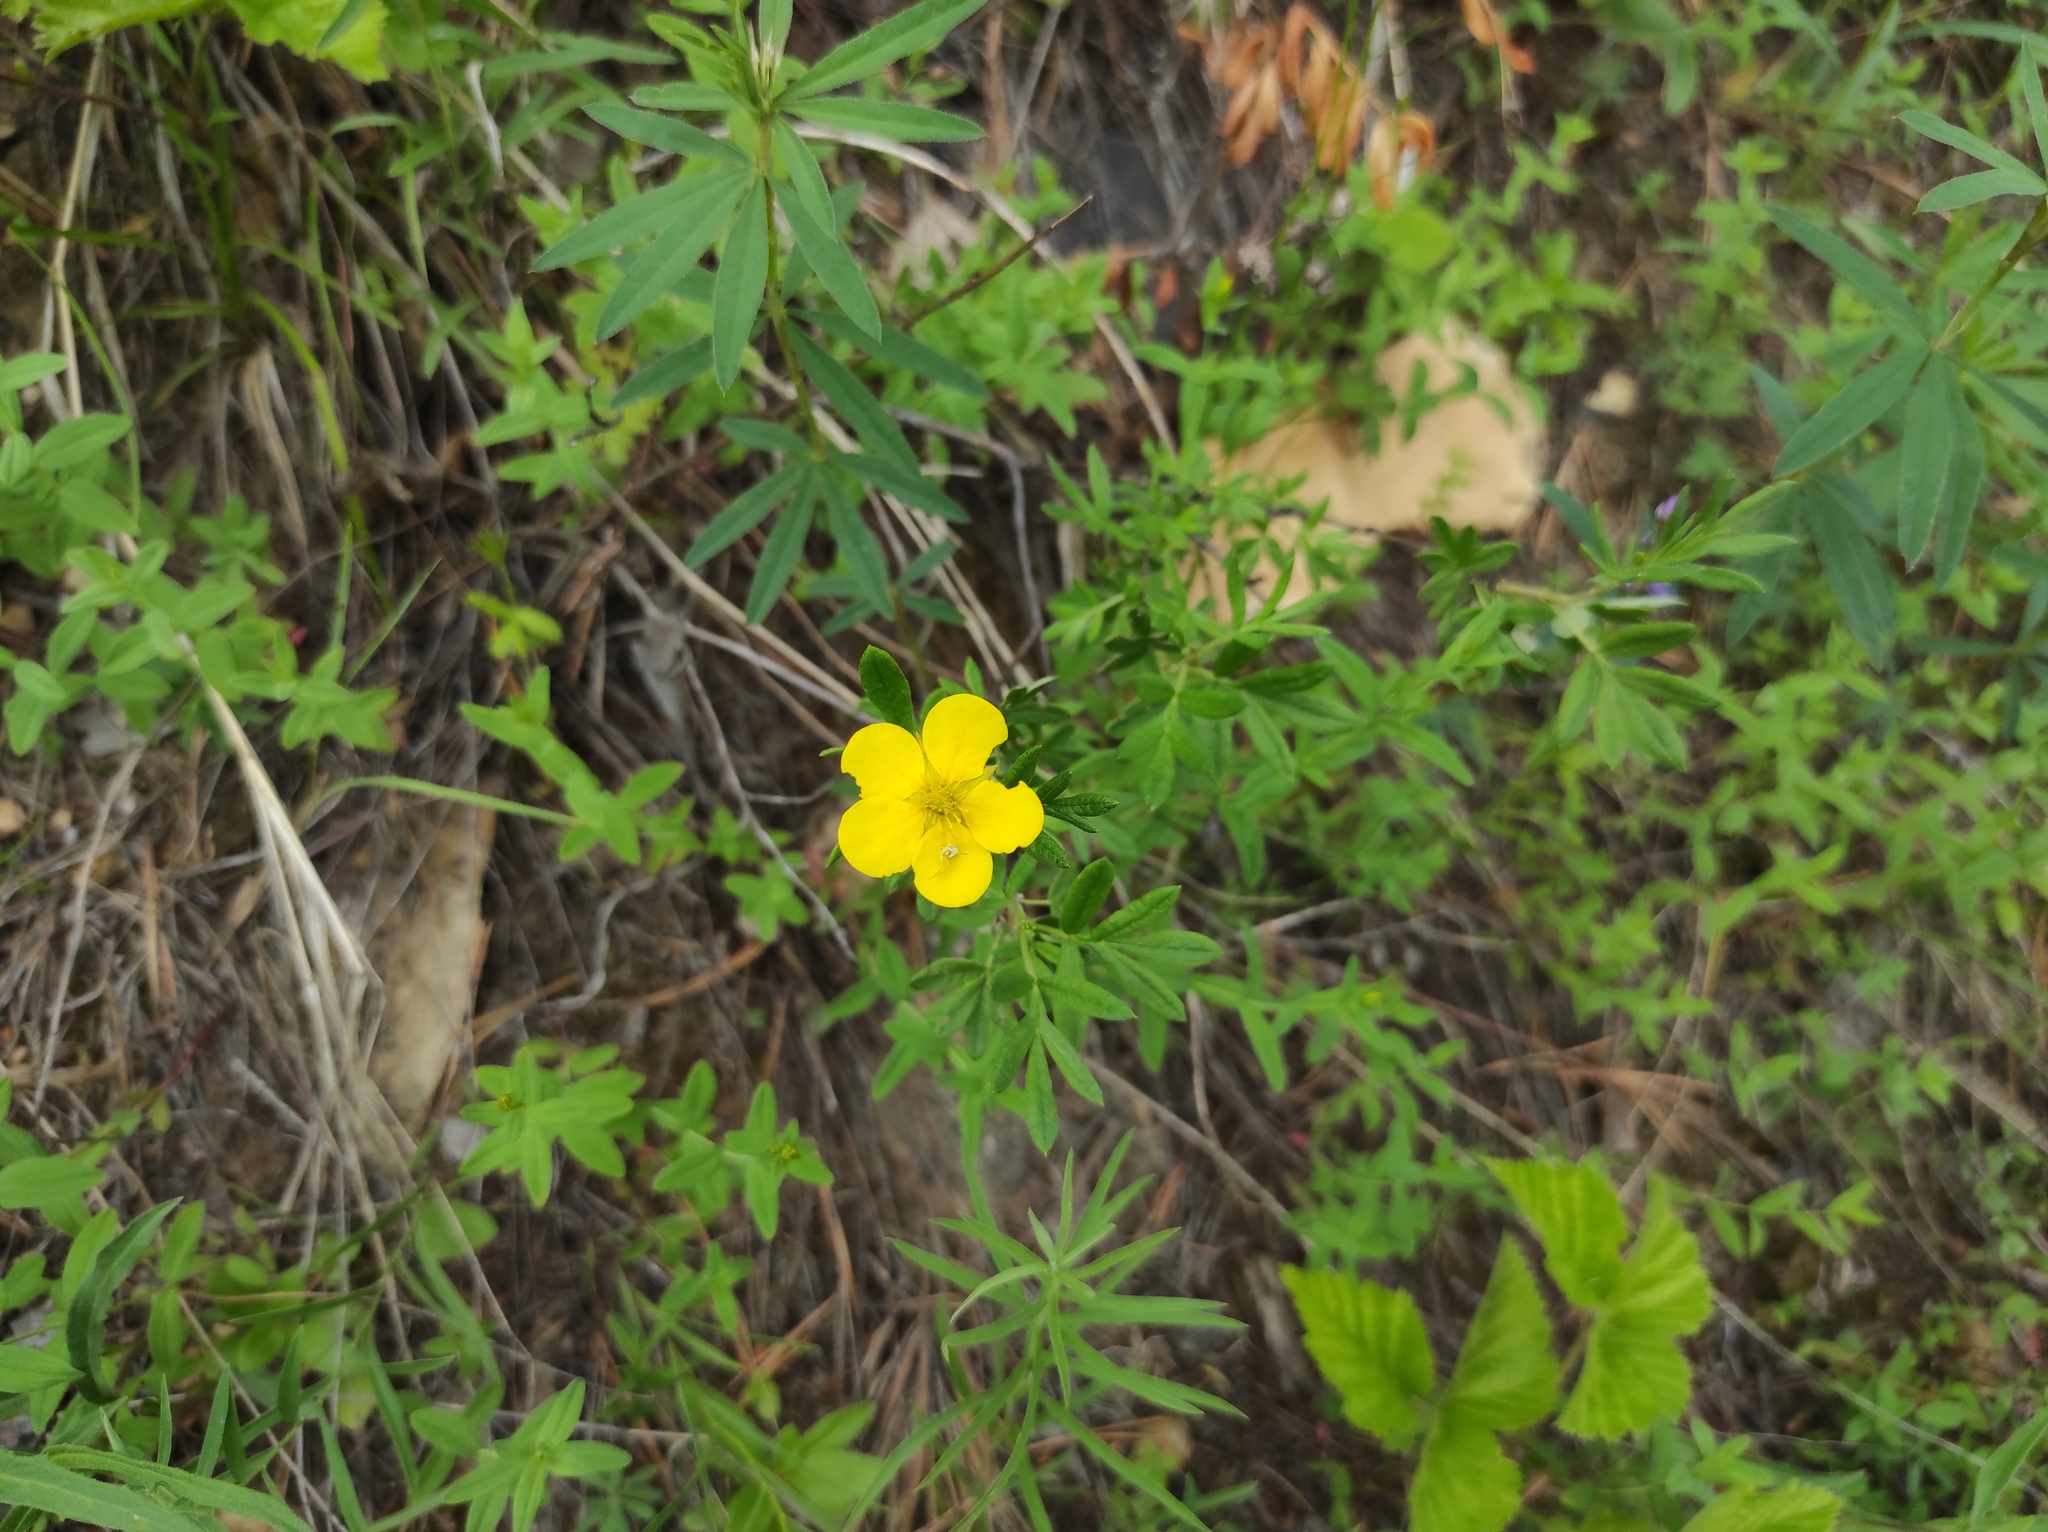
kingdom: Plantae
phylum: Tracheophyta
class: Magnoliopsida
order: Rosales
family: Rosaceae
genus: Dasiphora
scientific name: Dasiphora fruticosa
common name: Shrubby cinquefoil
